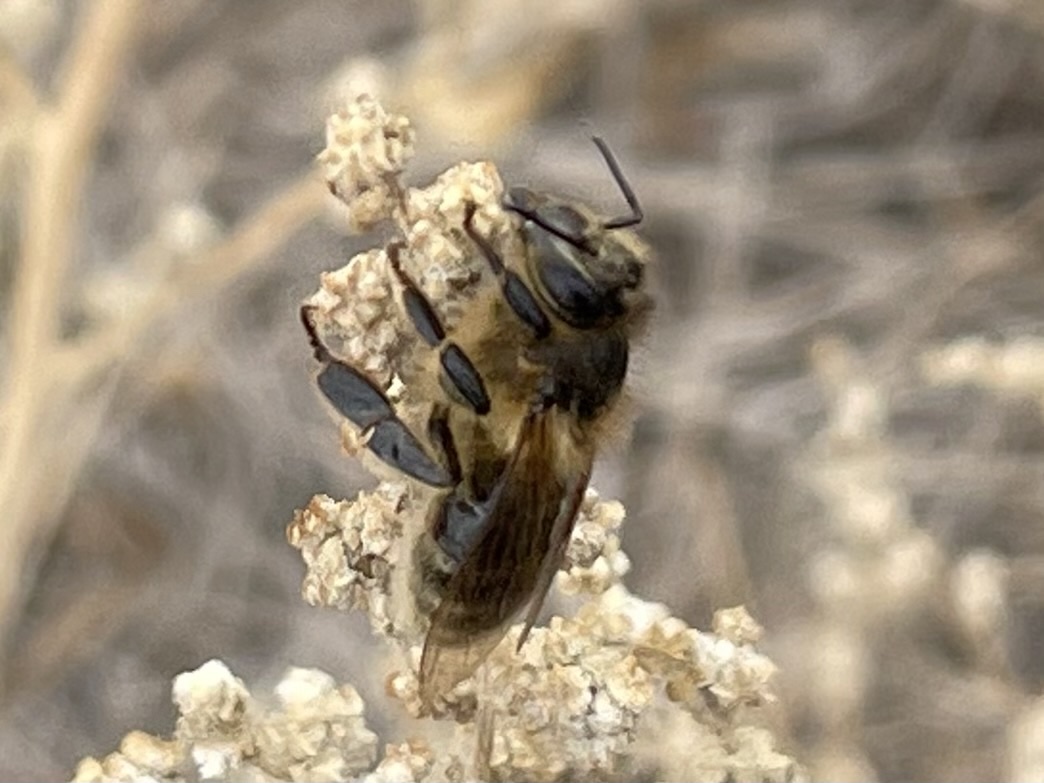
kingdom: Animalia
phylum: Arthropoda
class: Insecta
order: Hymenoptera
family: Apidae
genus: Apis
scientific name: Apis mellifera
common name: Honey bee
